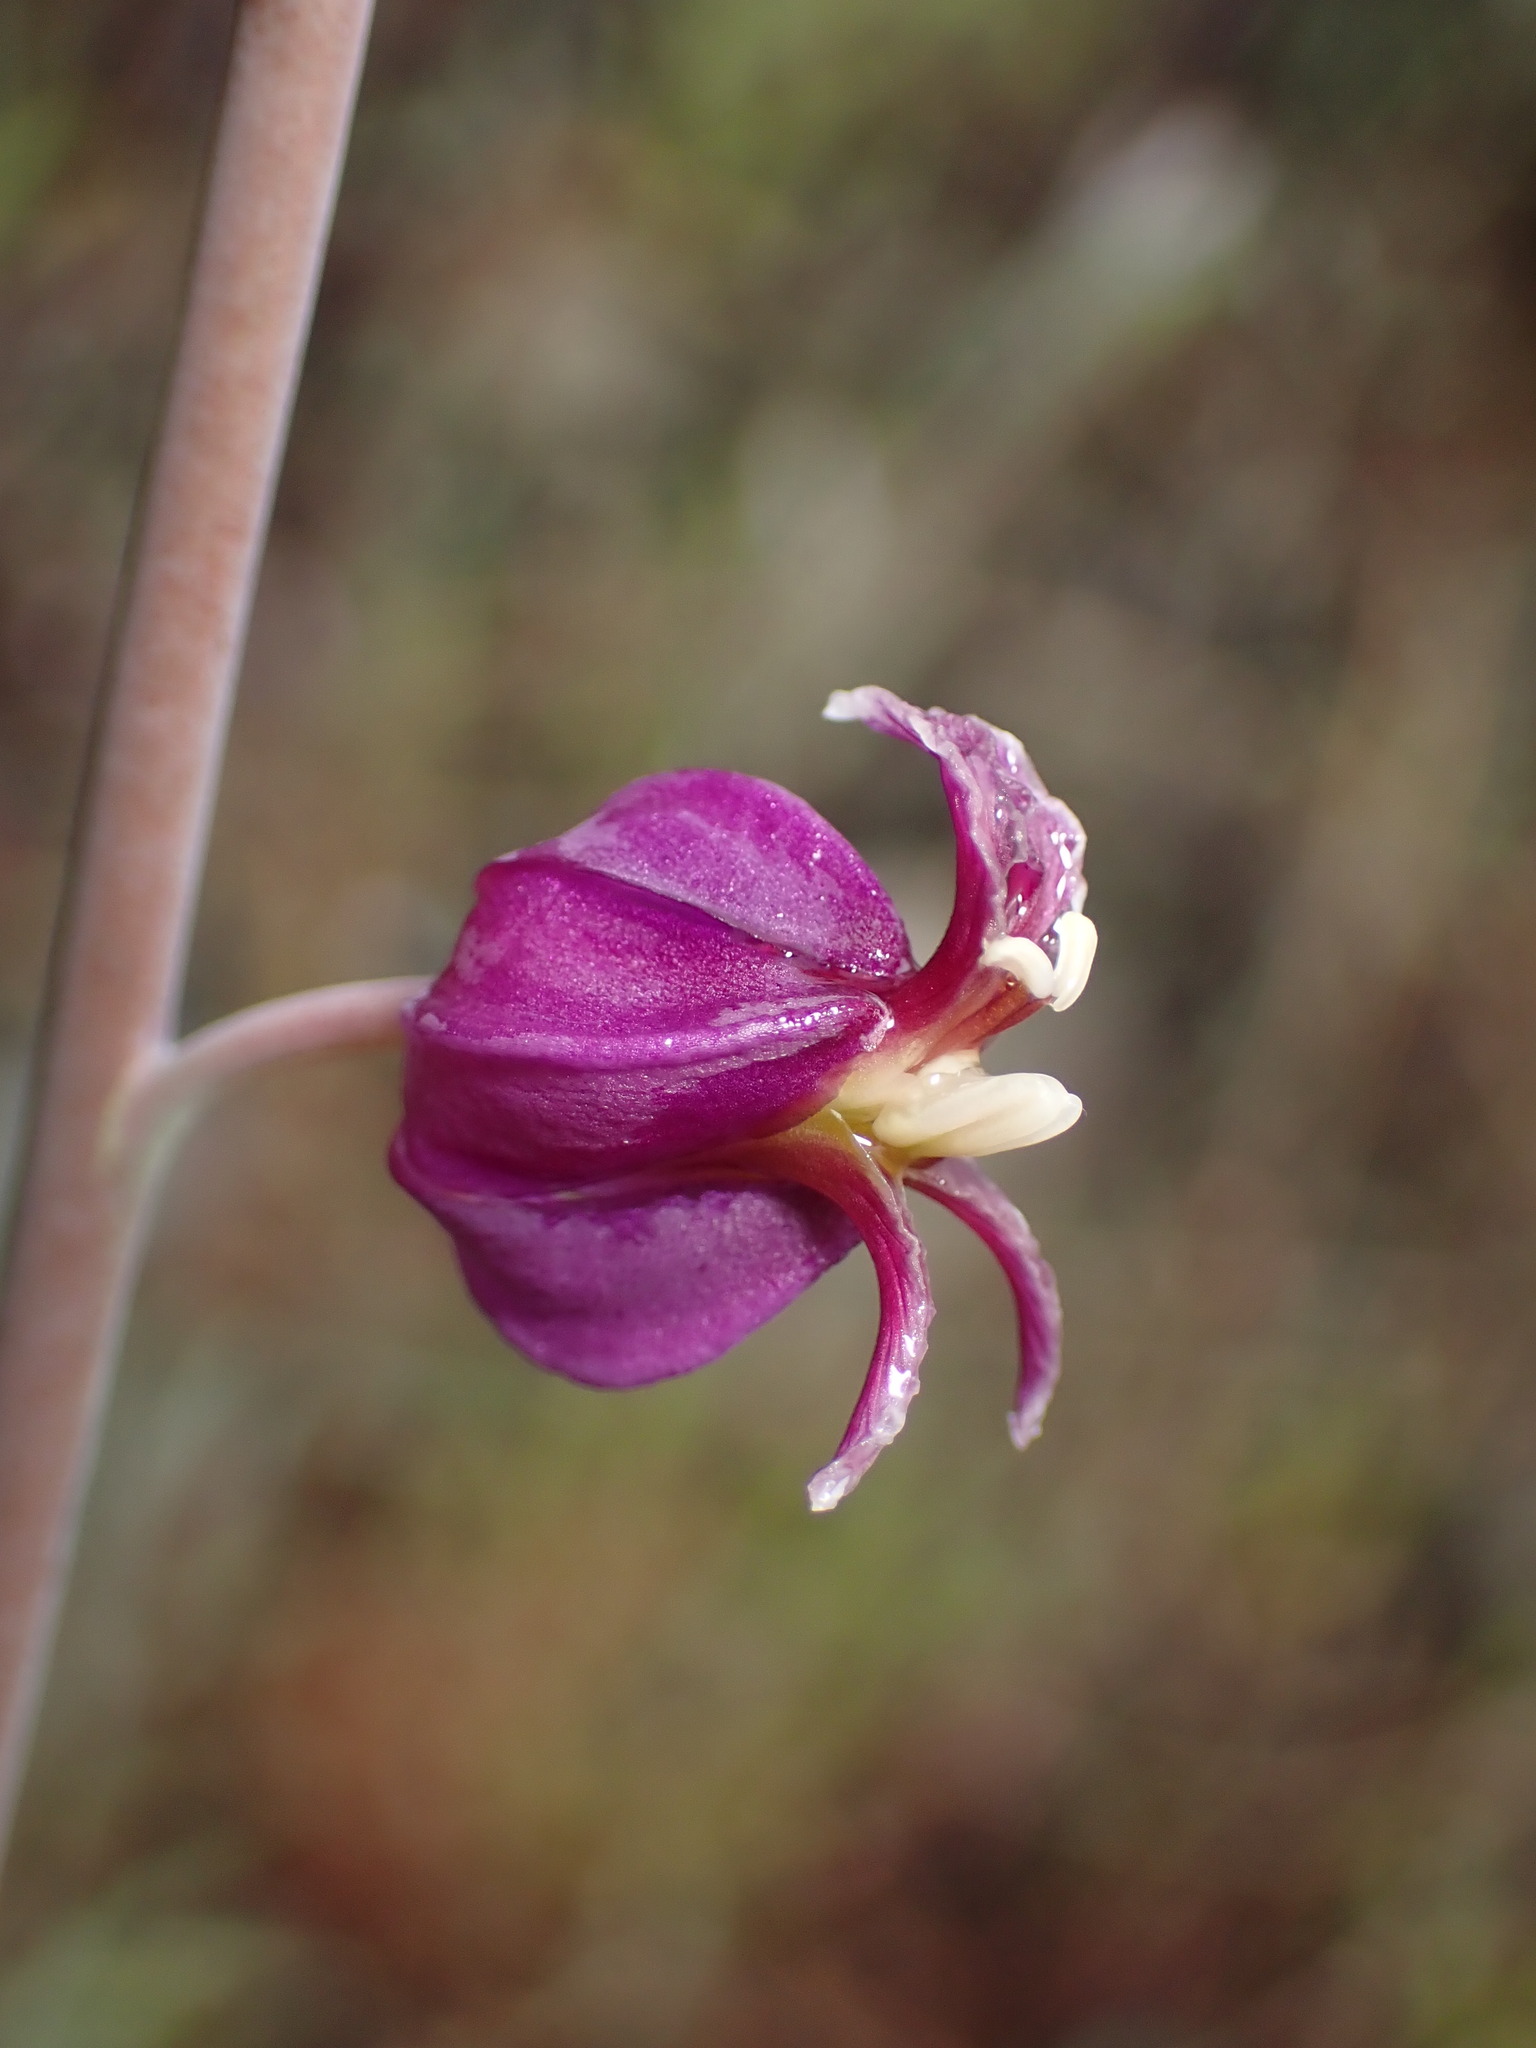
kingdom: Plantae
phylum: Tracheophyta
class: Magnoliopsida
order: Brassicales
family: Brassicaceae
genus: Streptanthus
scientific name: Streptanthus glandulosus
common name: Jewel-flower
